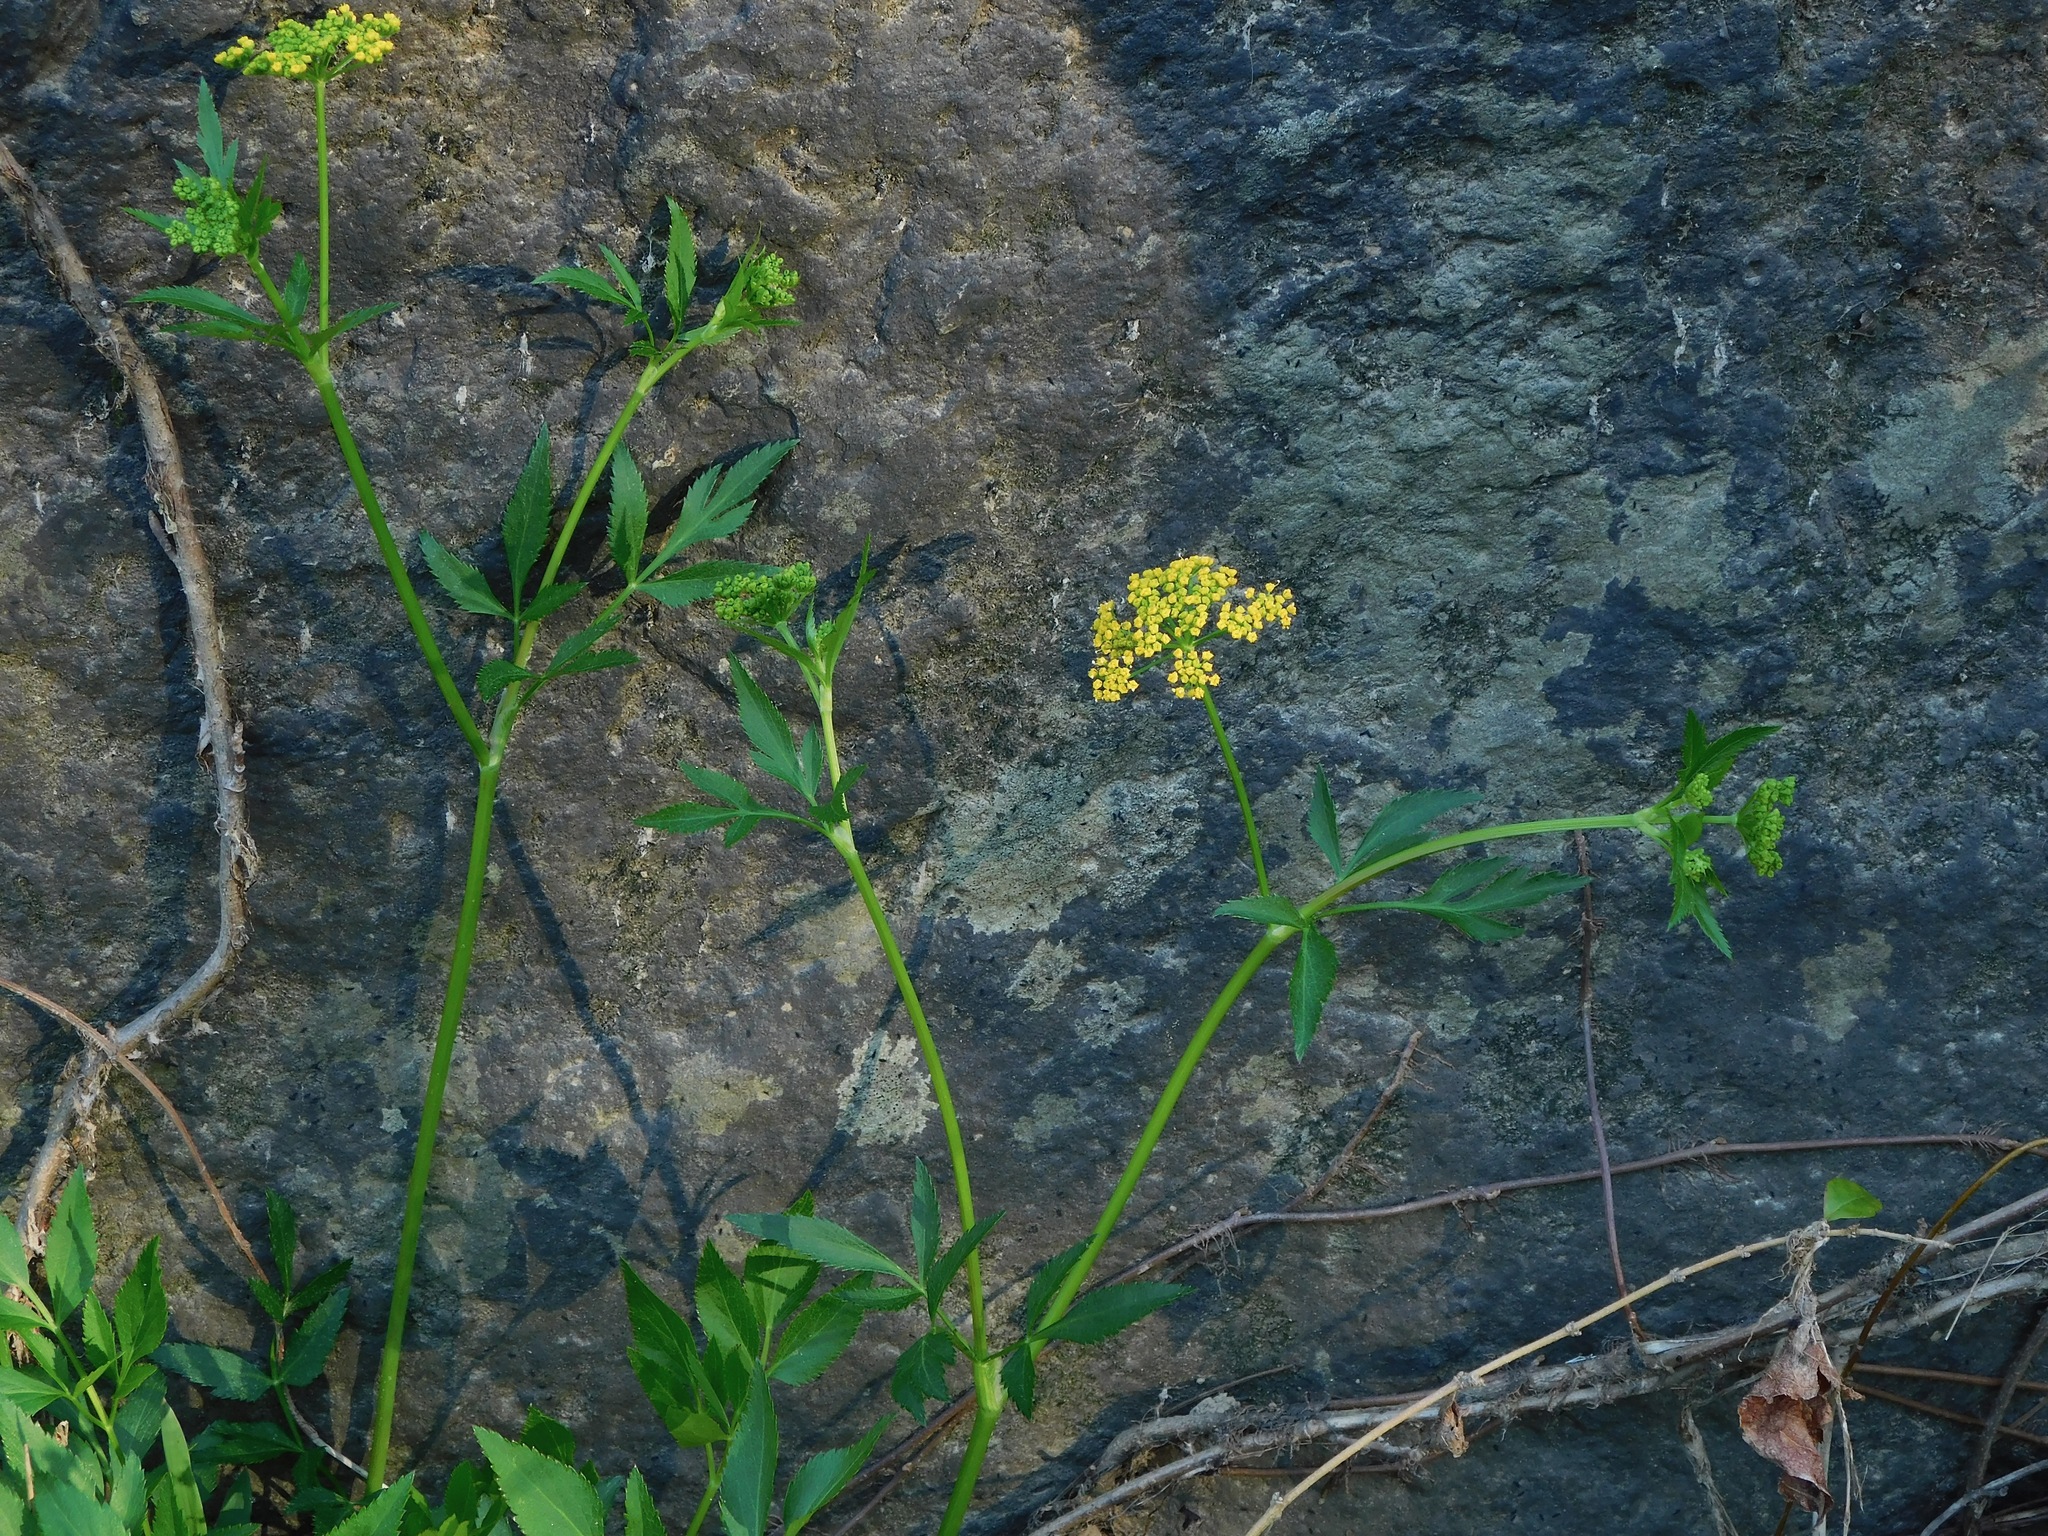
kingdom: Plantae
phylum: Tracheophyta
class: Magnoliopsida
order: Apiales
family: Apiaceae
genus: Zizia
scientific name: Zizia aurea
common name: Golden alexanders
